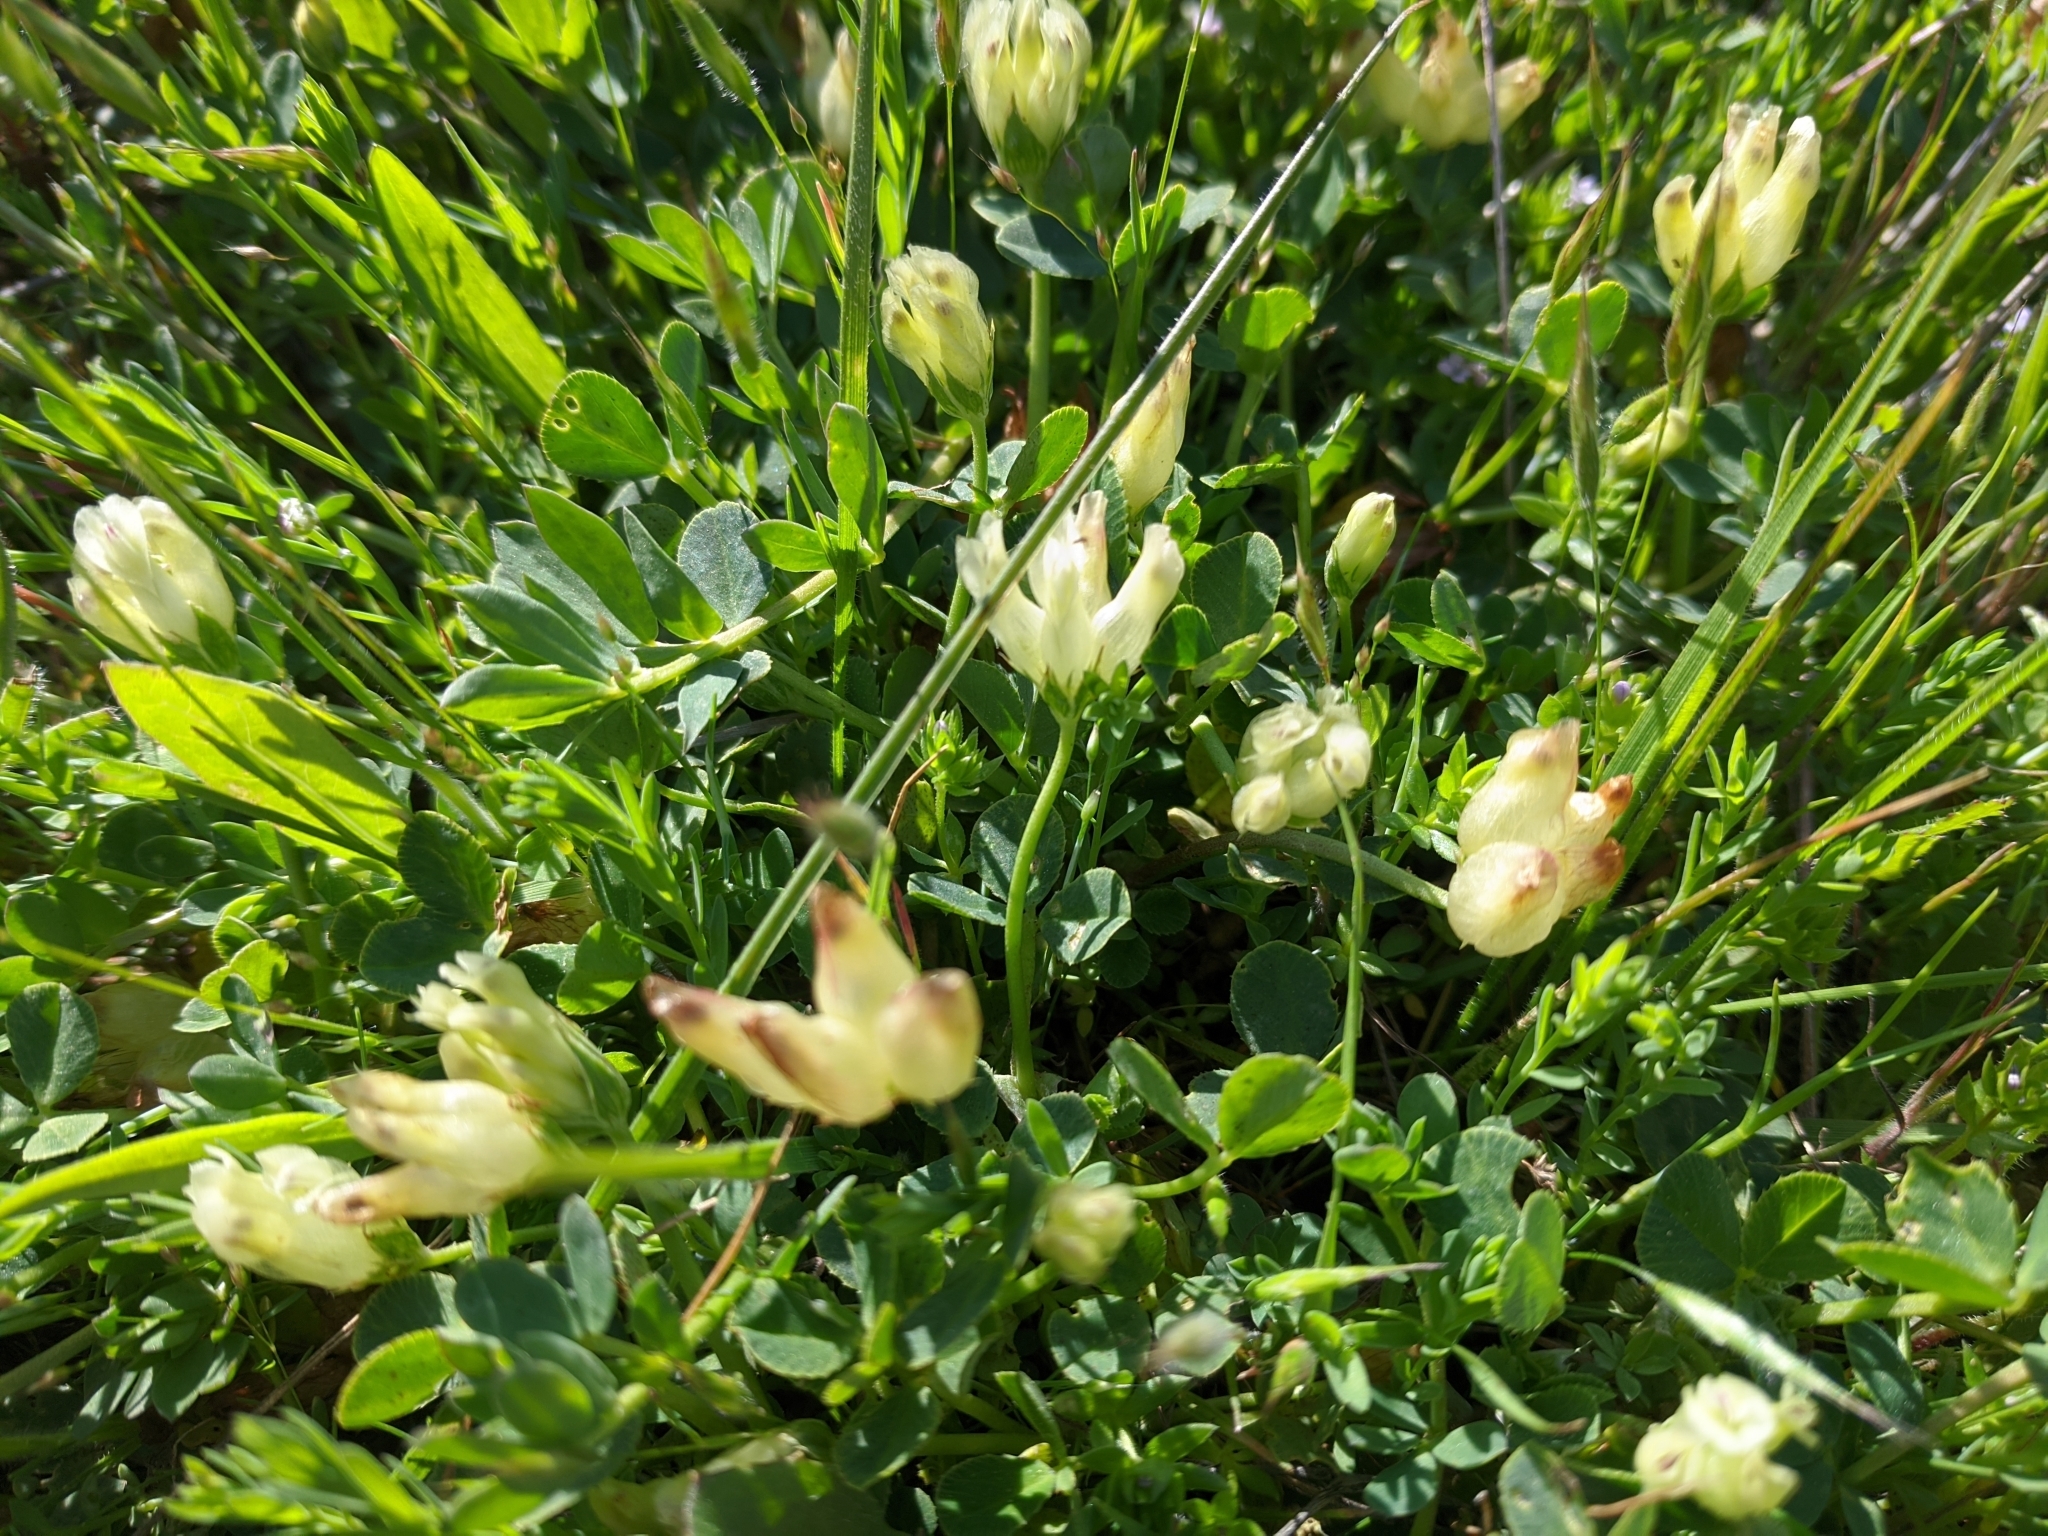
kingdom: Plantae
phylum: Tracheophyta
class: Magnoliopsida
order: Fabales
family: Fabaceae
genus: Trifolium
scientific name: Trifolium fucatum
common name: Puff clover
